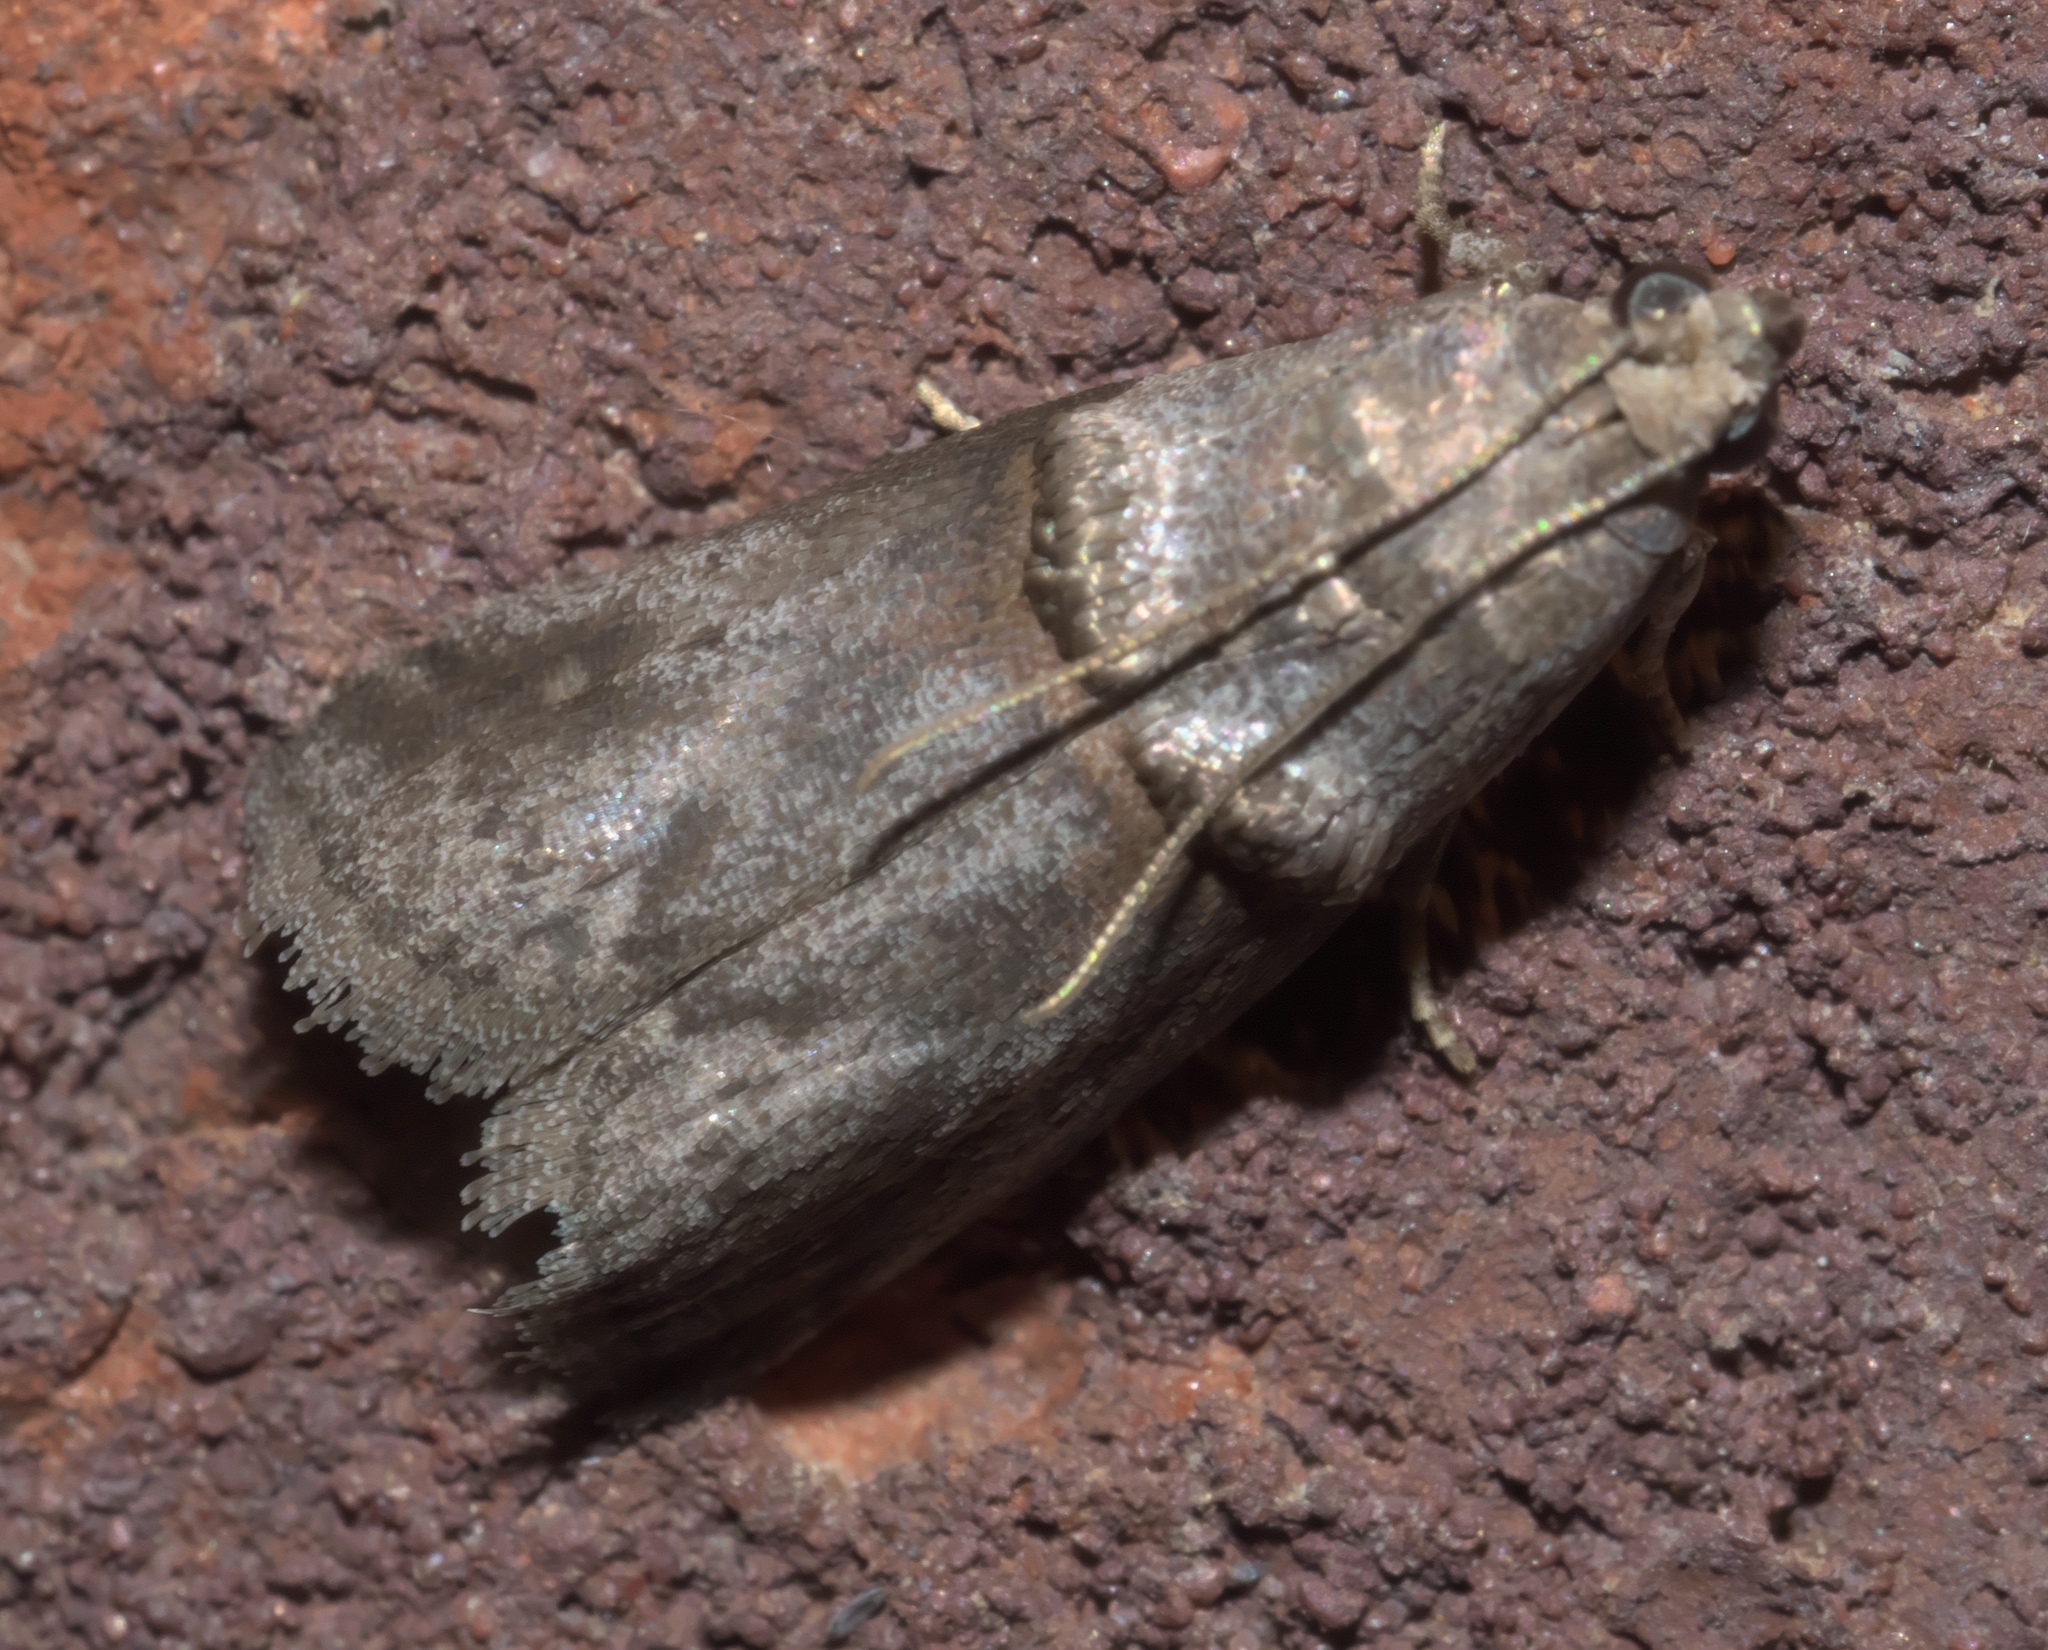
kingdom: Animalia
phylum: Arthropoda
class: Insecta
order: Lepidoptera
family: Pyralidae
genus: Acrobasis
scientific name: Acrobasis caryae
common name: Hickory shoot borer moth
